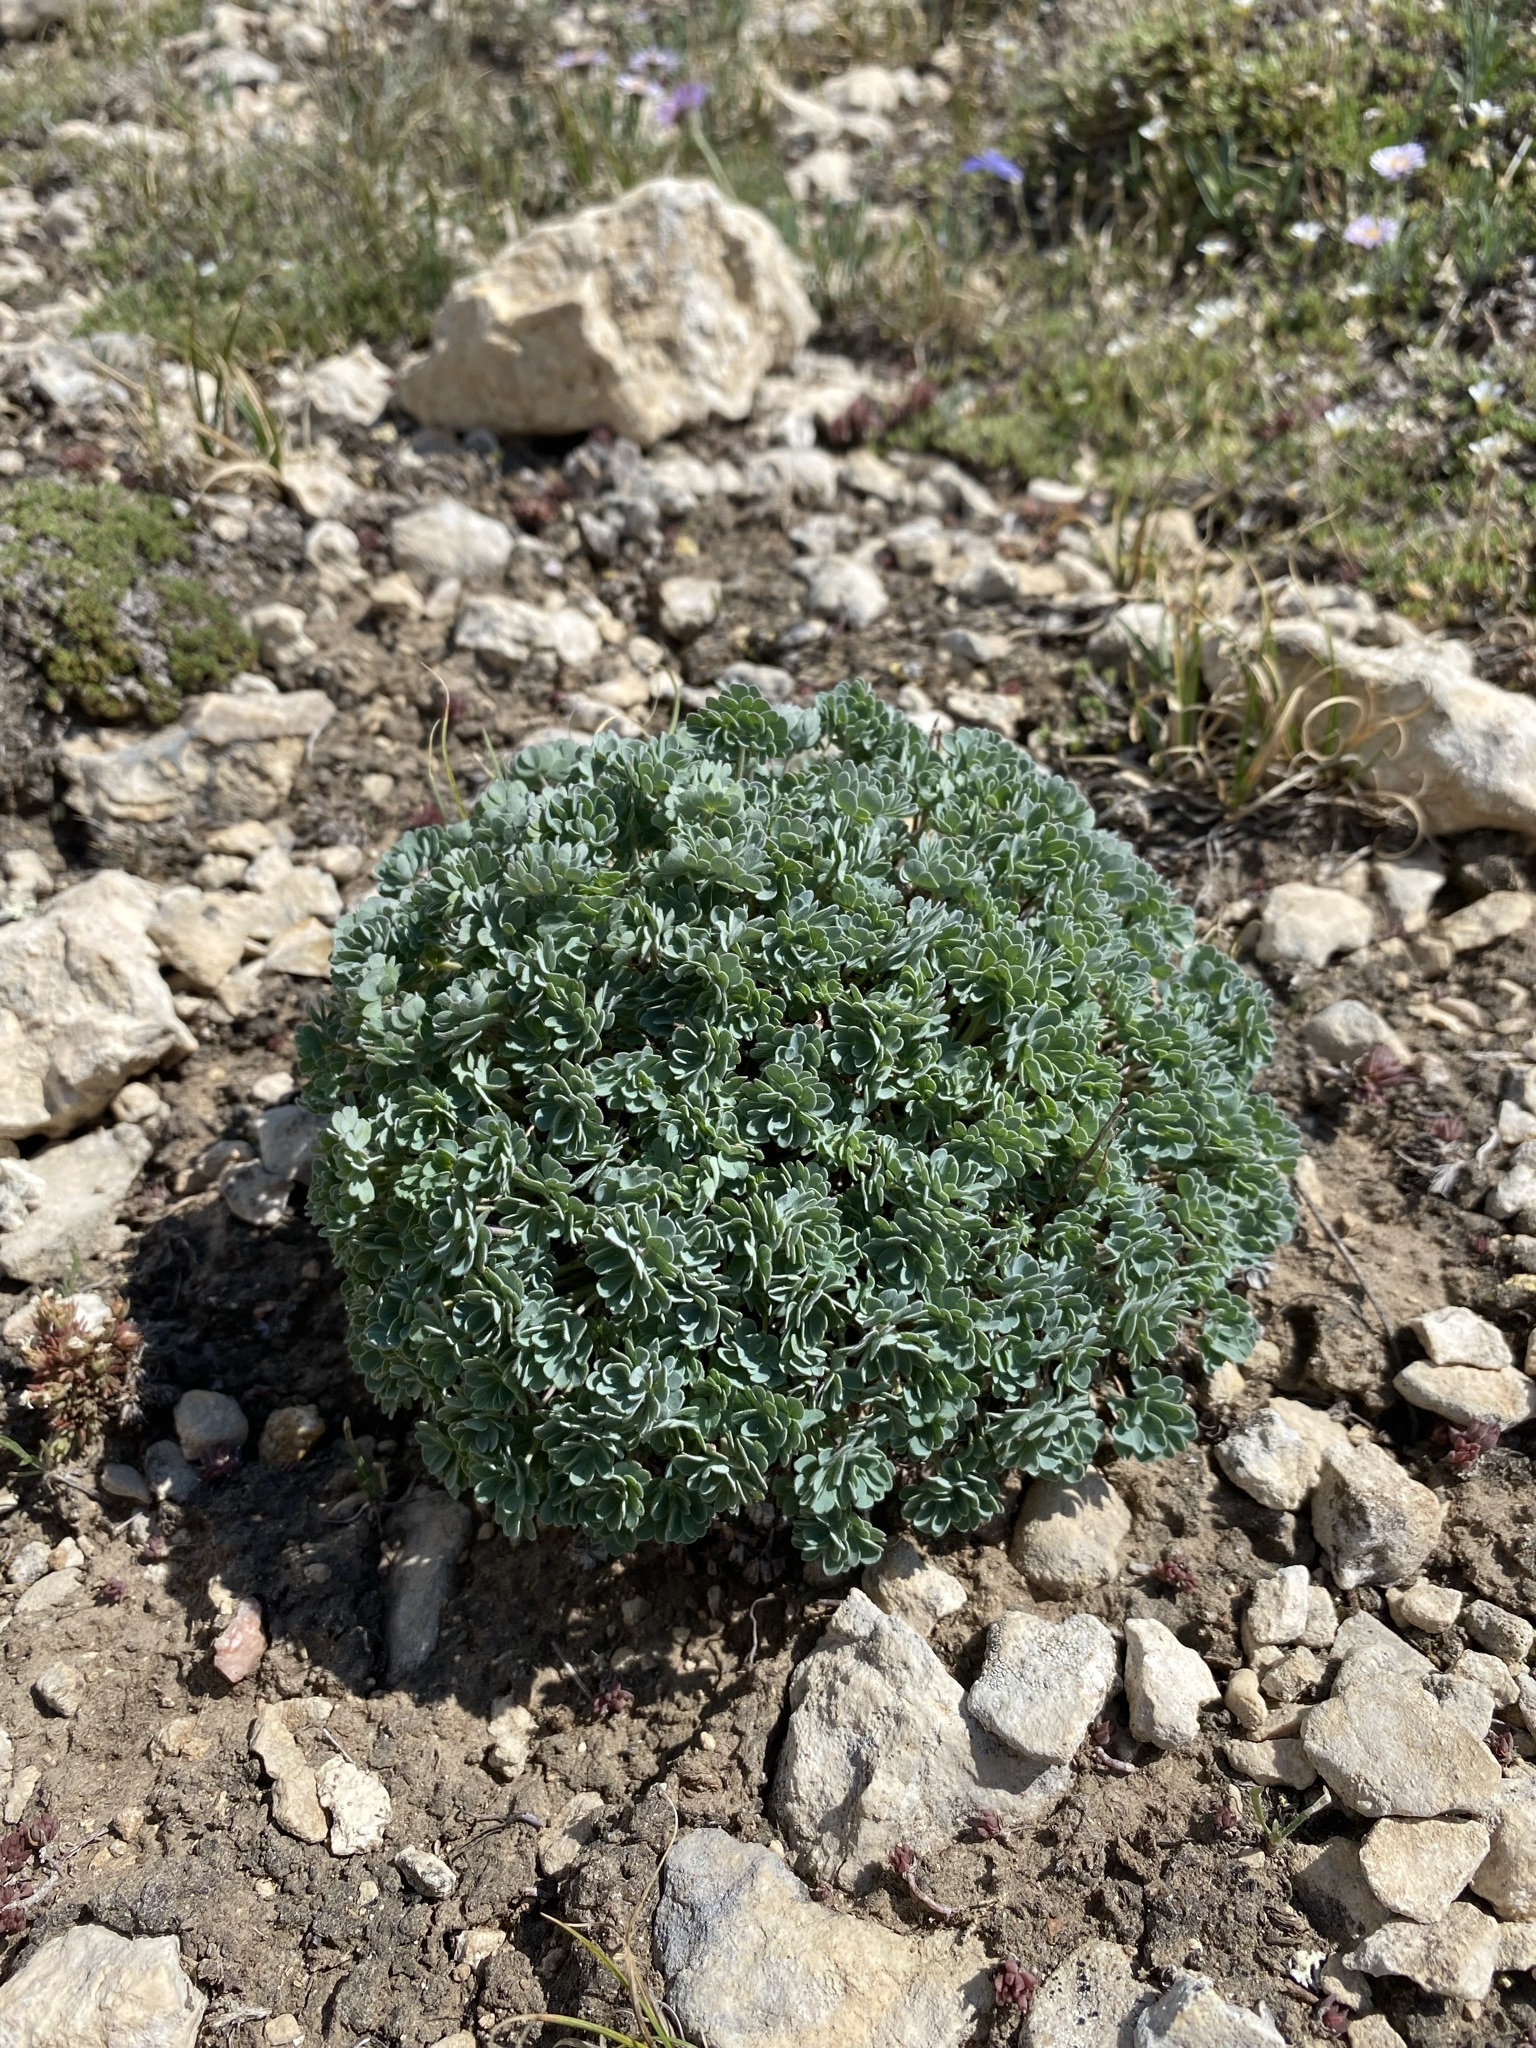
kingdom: Plantae
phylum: Tracheophyta
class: Magnoliopsida
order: Ranunculales
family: Ranunculaceae
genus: Aquilegia
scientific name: Aquilegia jonesii
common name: Jones' columbine
